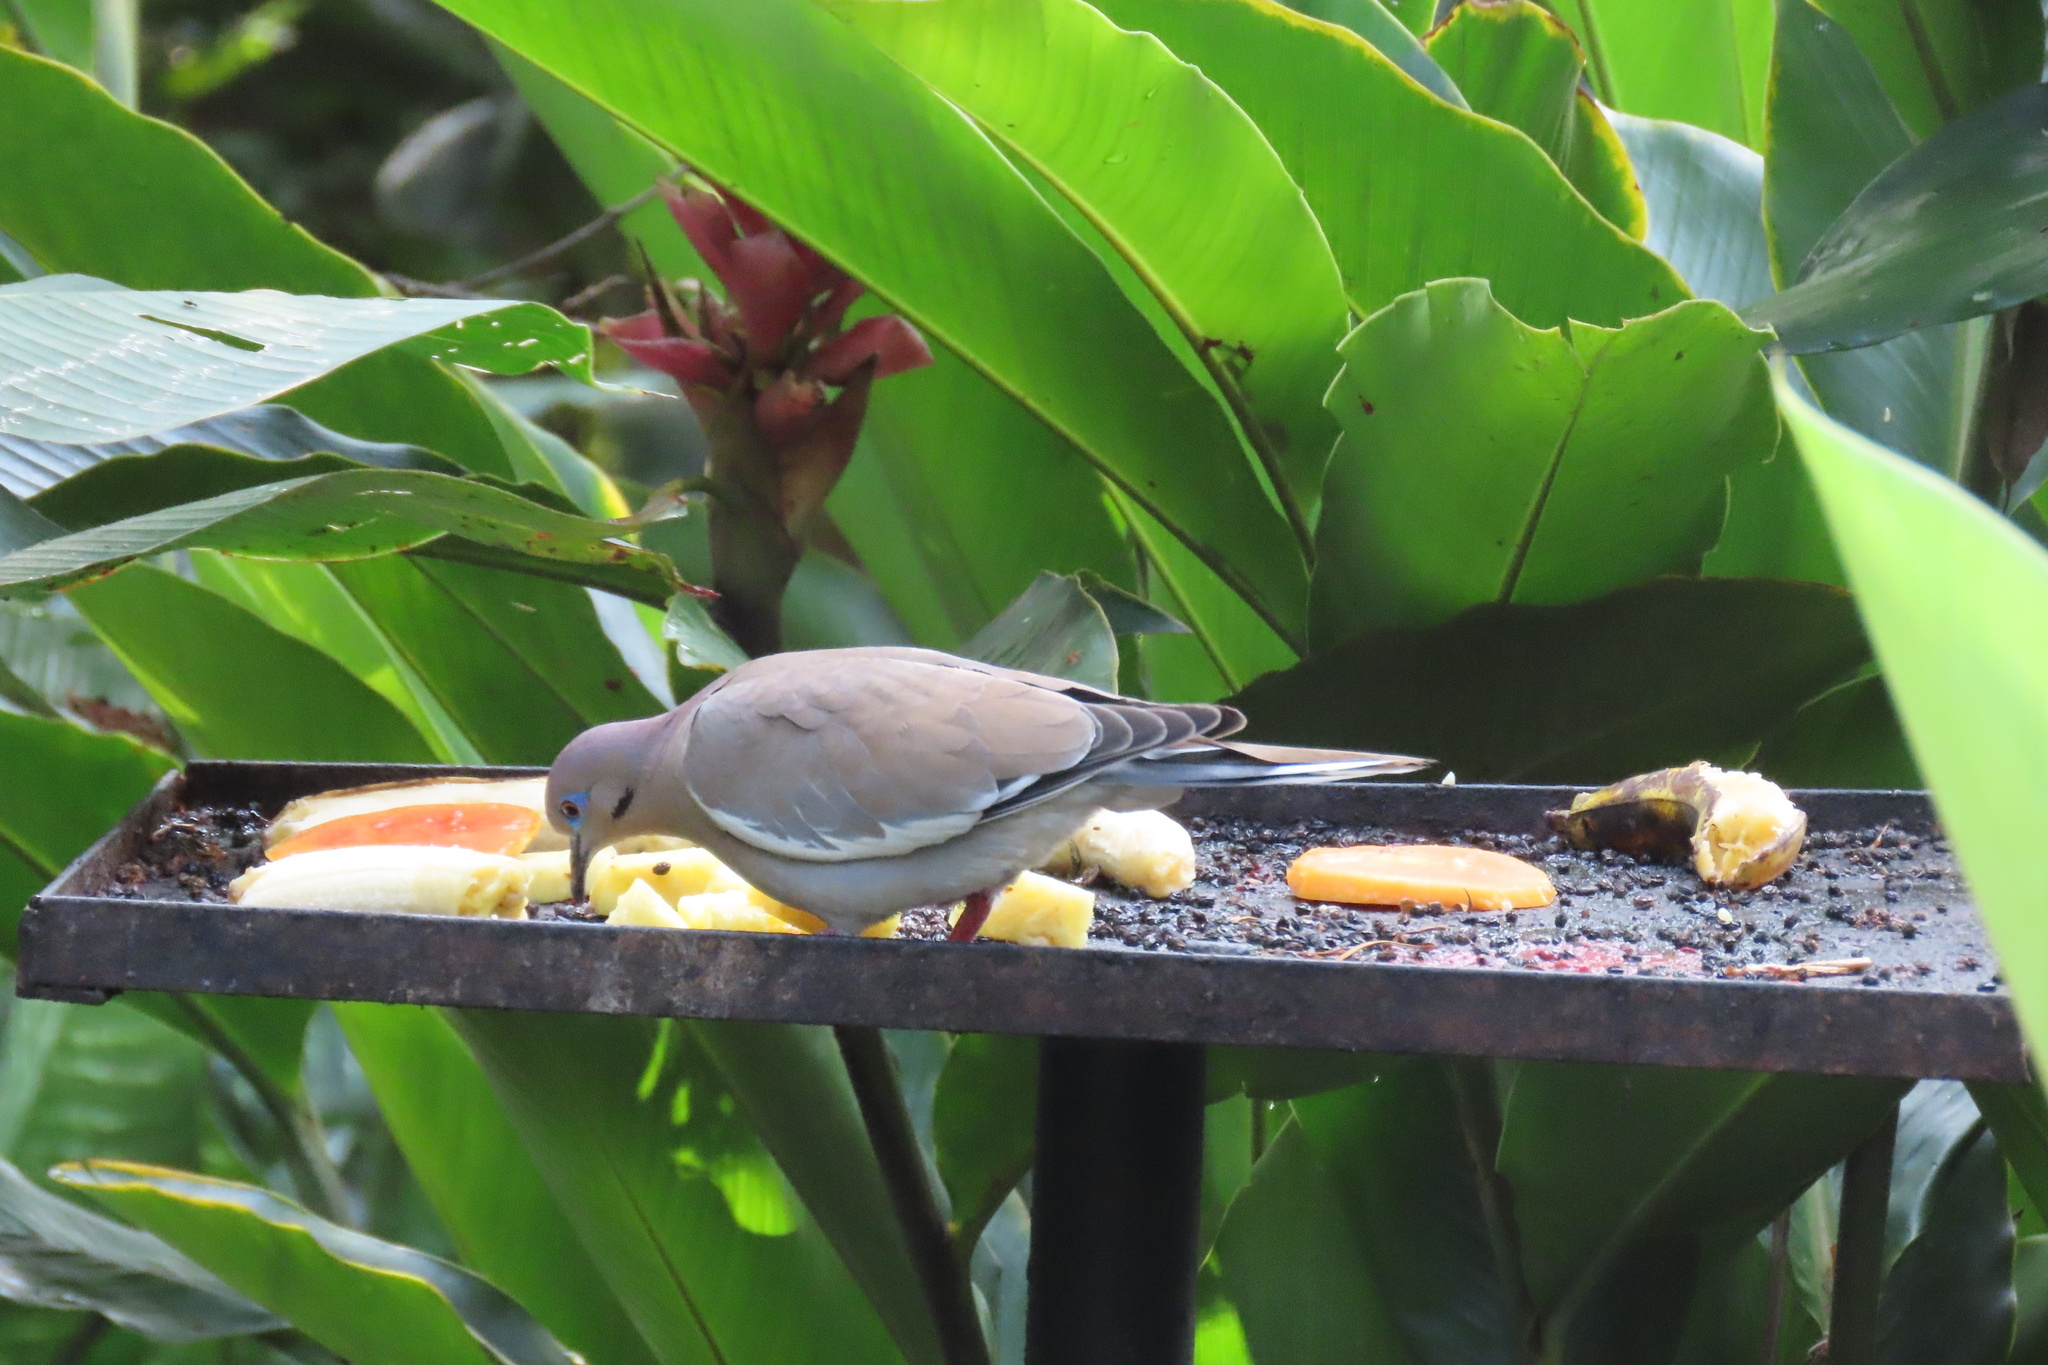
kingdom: Animalia
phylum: Chordata
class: Aves
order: Columbiformes
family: Columbidae
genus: Zenaida
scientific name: Zenaida asiatica
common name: White-winged dove
